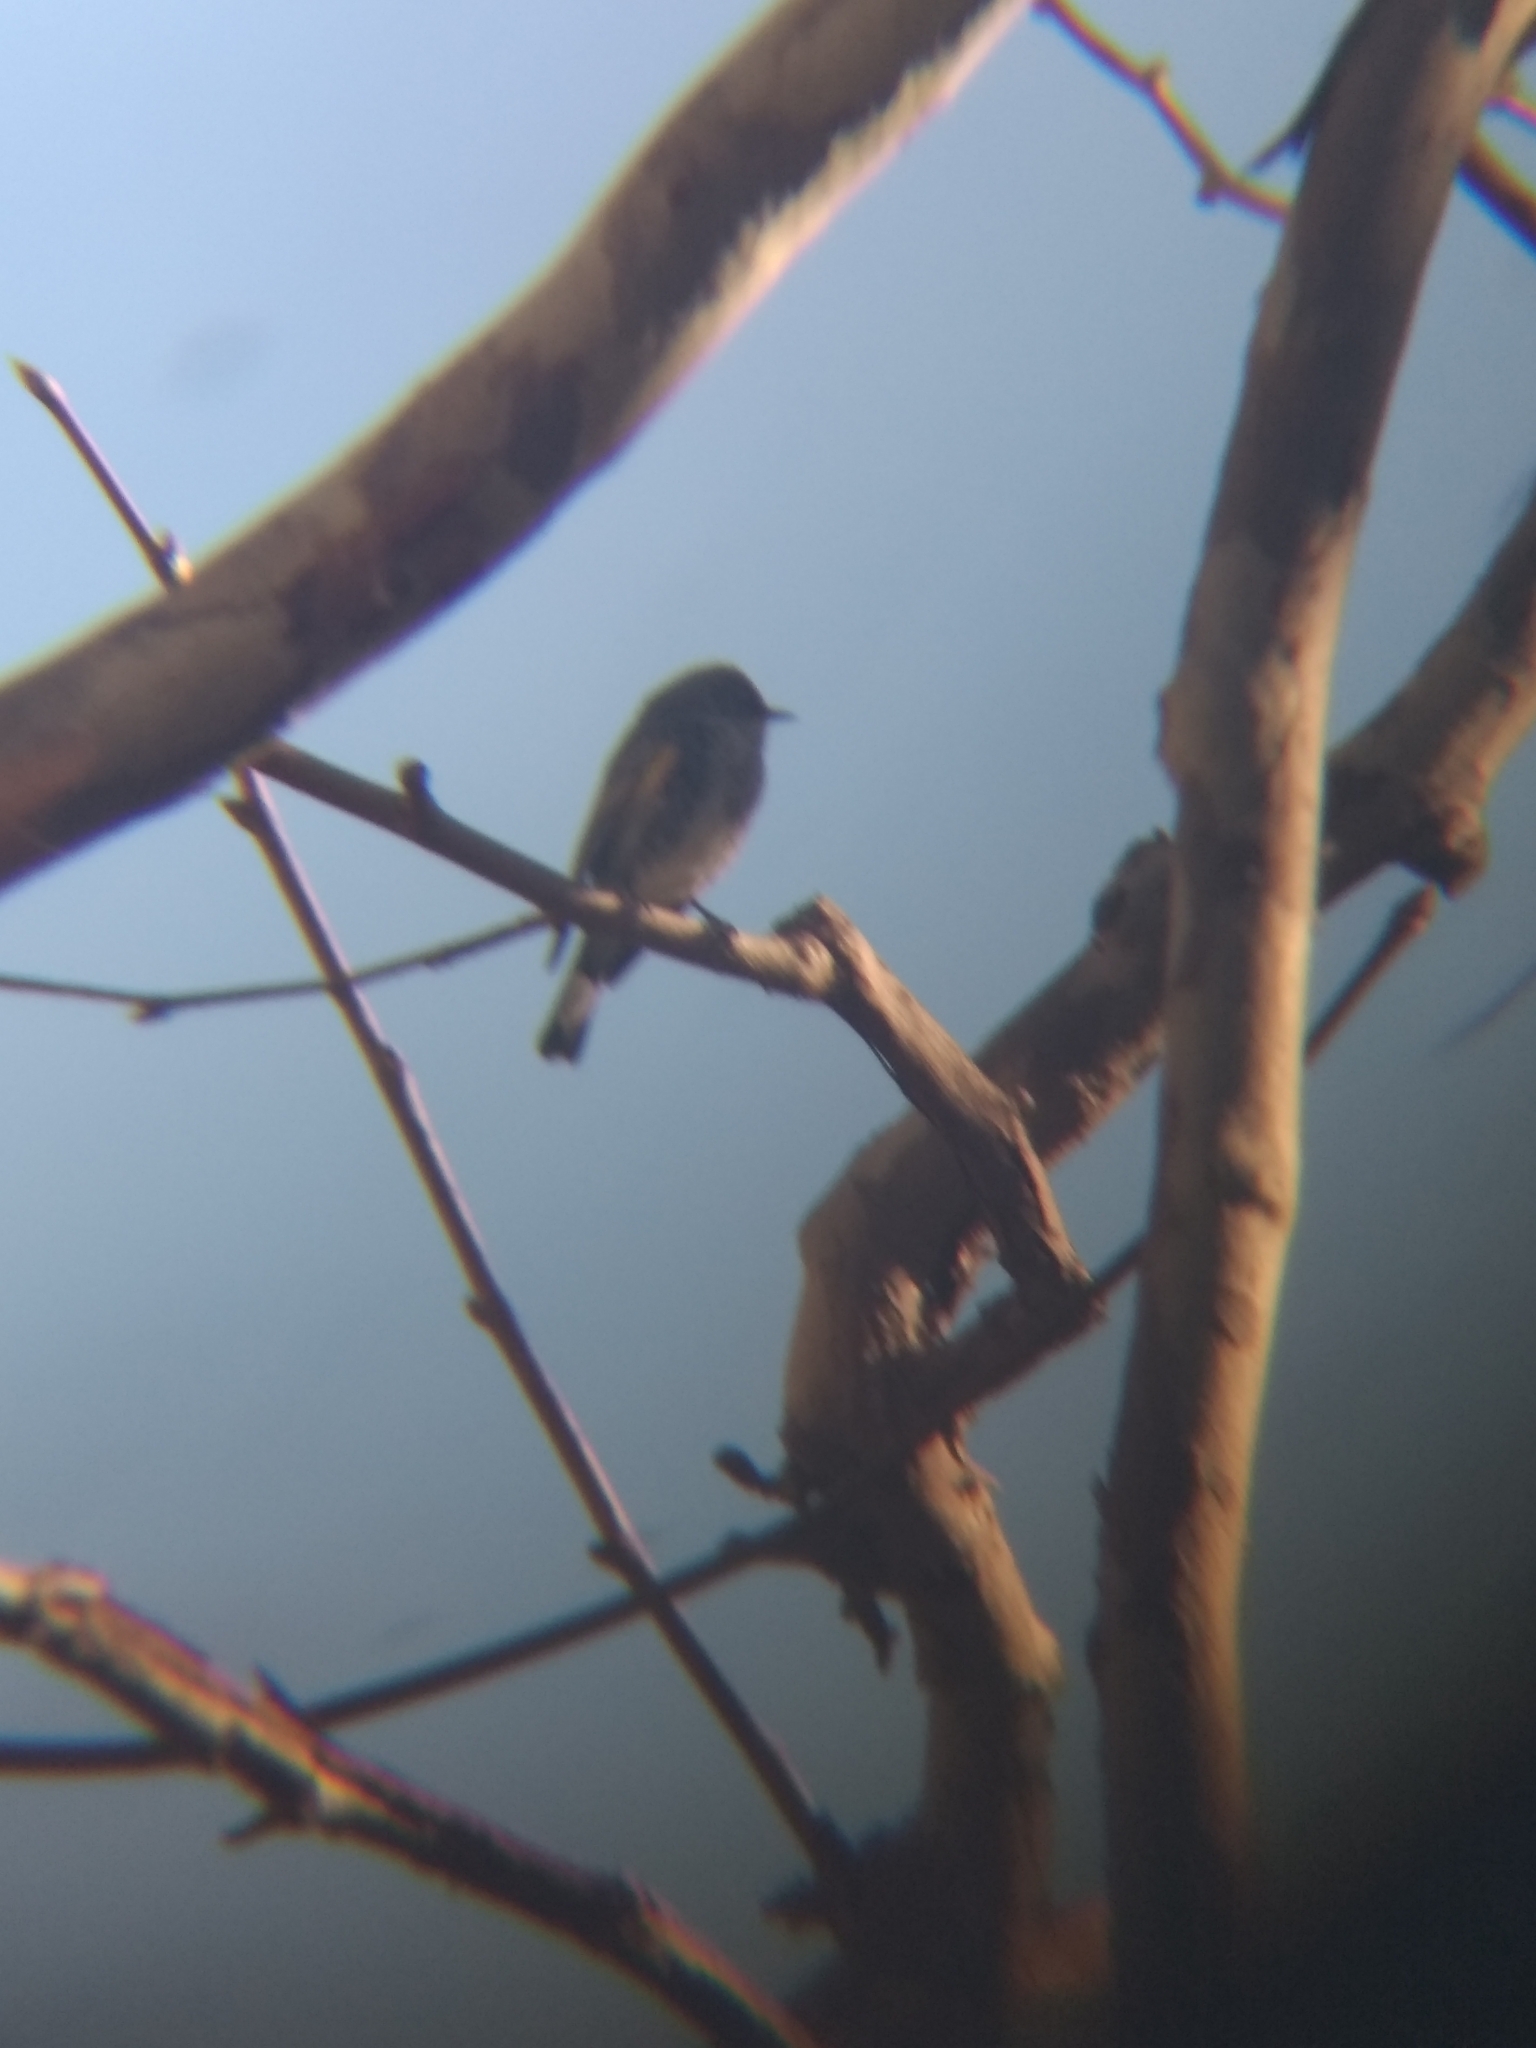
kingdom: Animalia
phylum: Chordata
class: Aves
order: Passeriformes
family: Parulidae
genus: Setophaga
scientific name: Setophaga coronata
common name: Myrtle warbler
